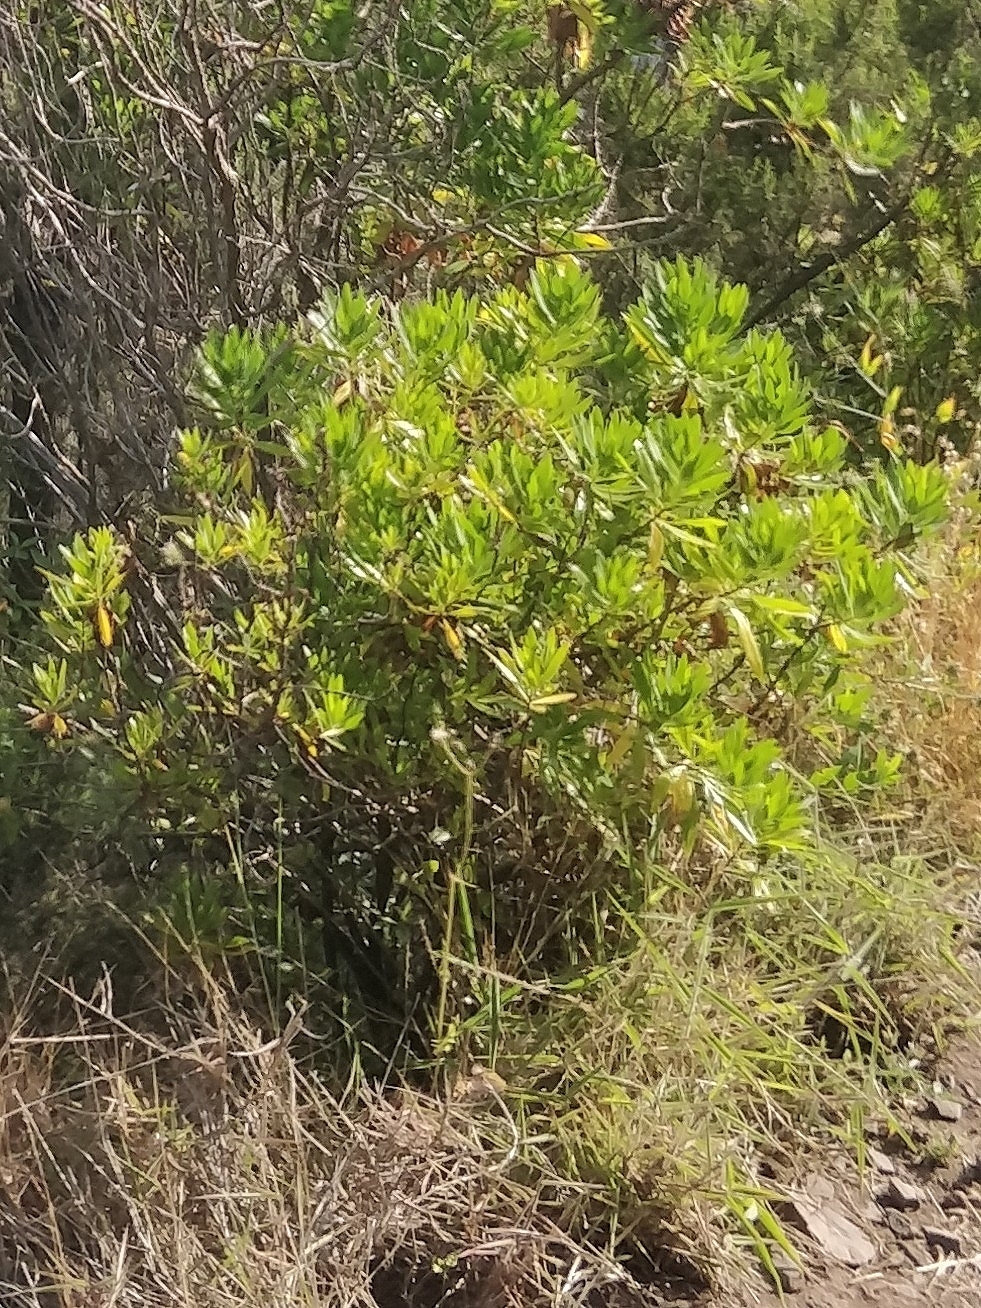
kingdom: Plantae
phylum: Tracheophyta
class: Magnoliopsida
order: Lamiales
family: Plantaginaceae
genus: Globularia
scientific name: Globularia salicina
